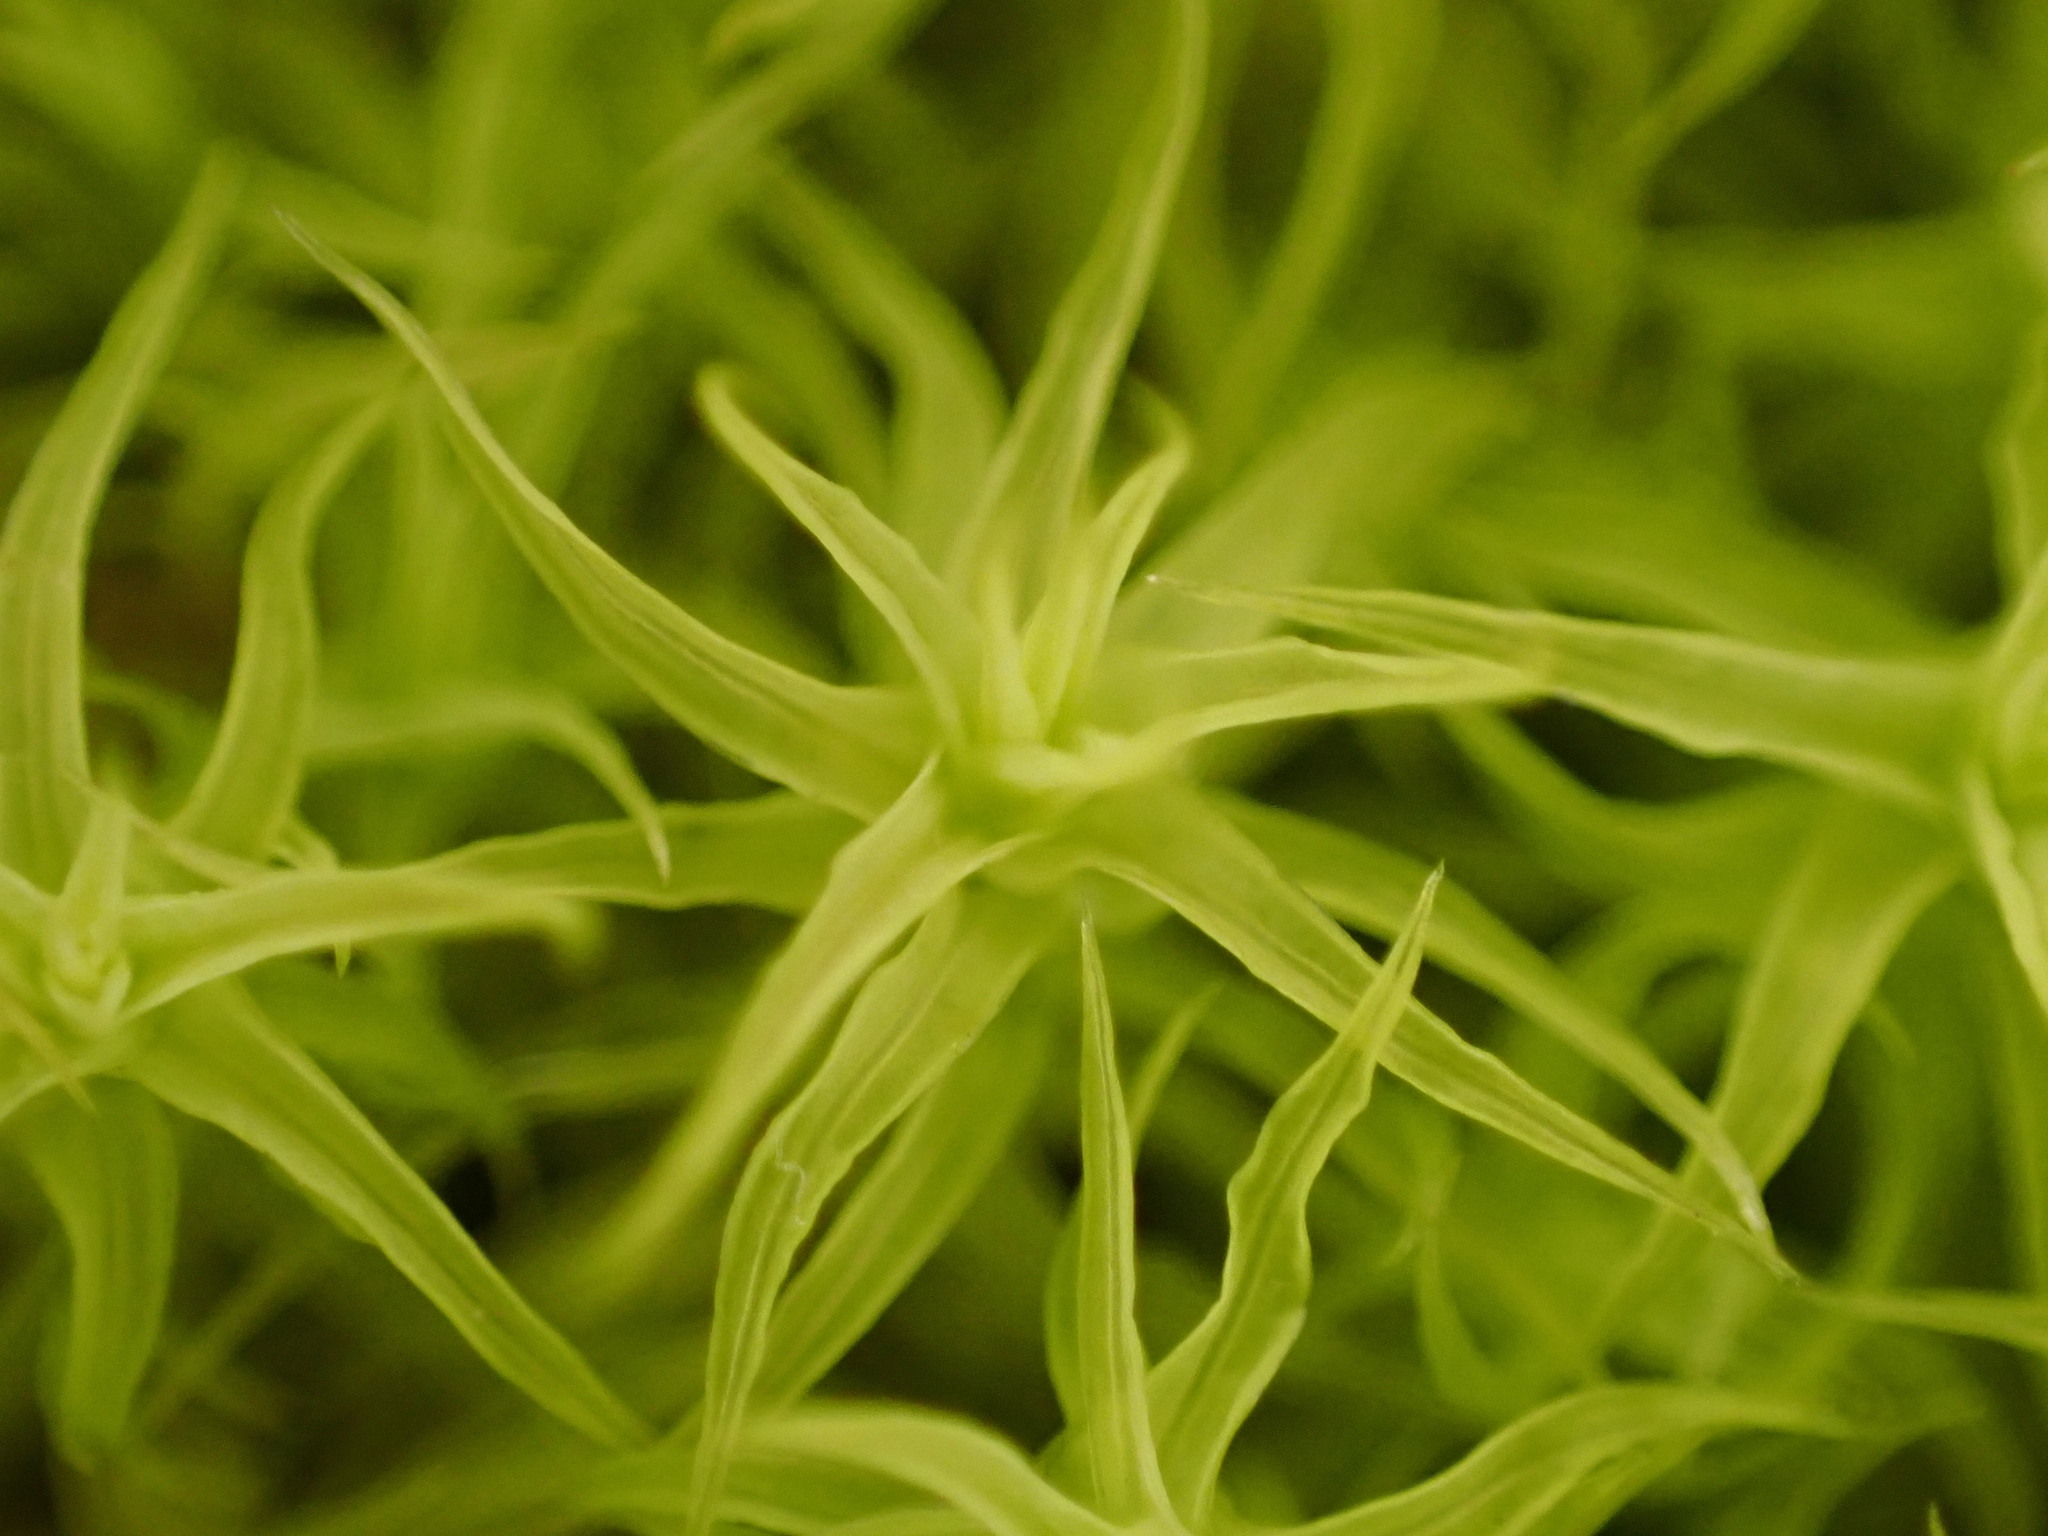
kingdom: Plantae
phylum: Bryophyta
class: Bryopsida
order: Pottiales
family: Pottiaceae
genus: Pleurochaete
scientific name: Pleurochaete squarrosa
